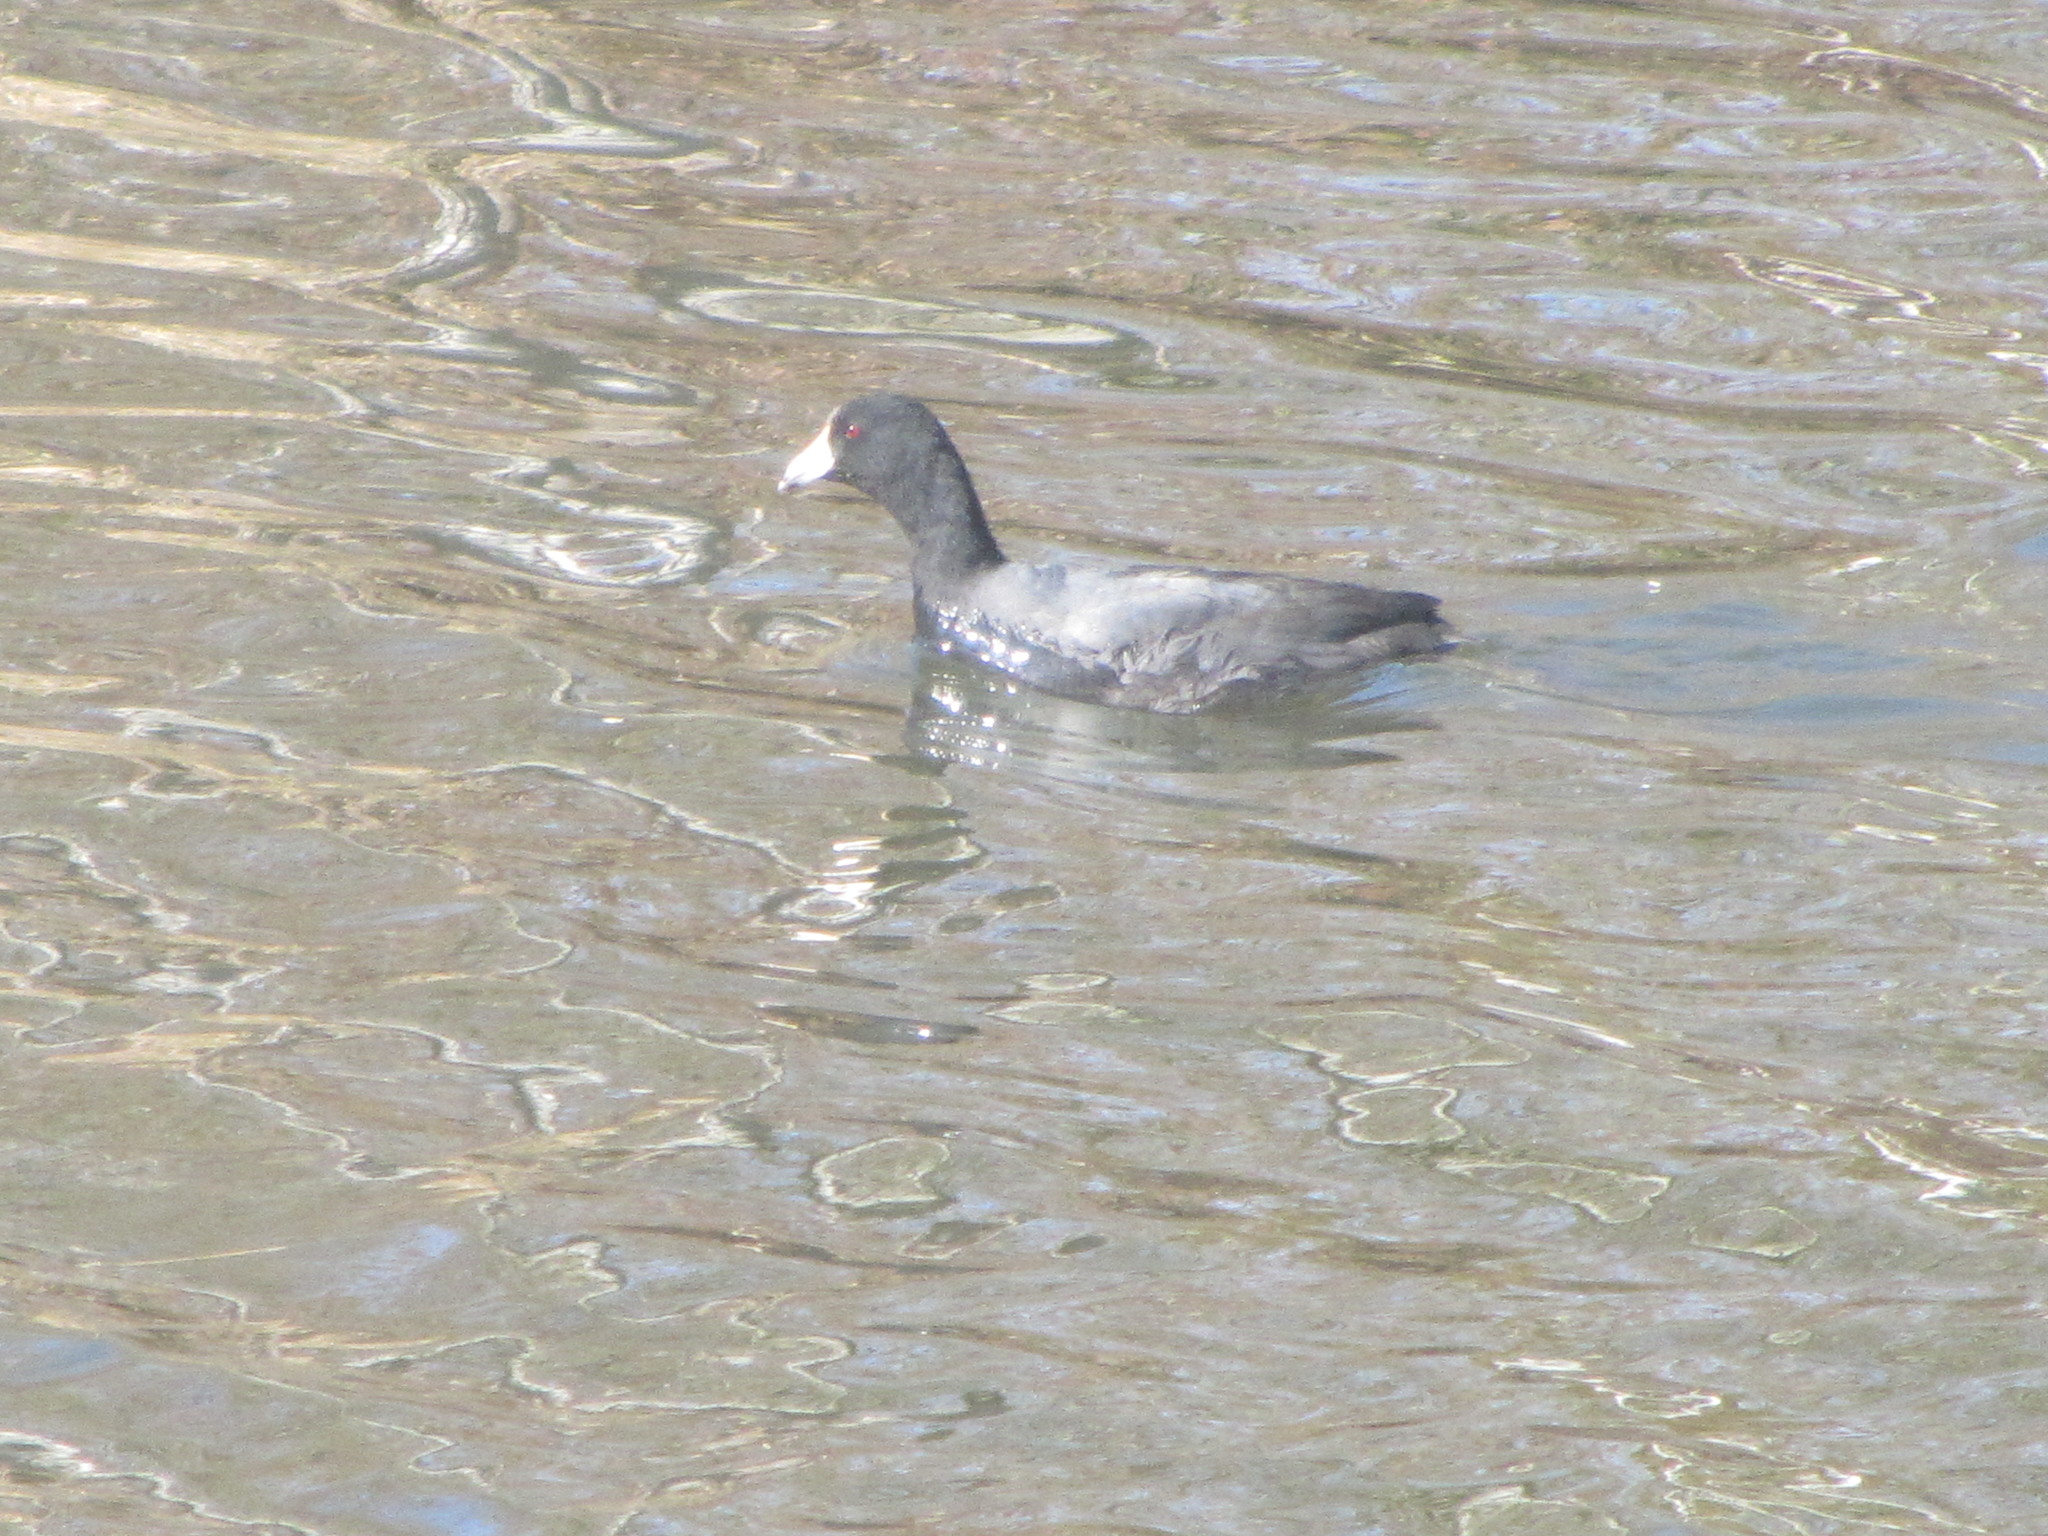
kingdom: Animalia
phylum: Chordata
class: Aves
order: Gruiformes
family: Rallidae
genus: Fulica
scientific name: Fulica americana
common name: American coot
